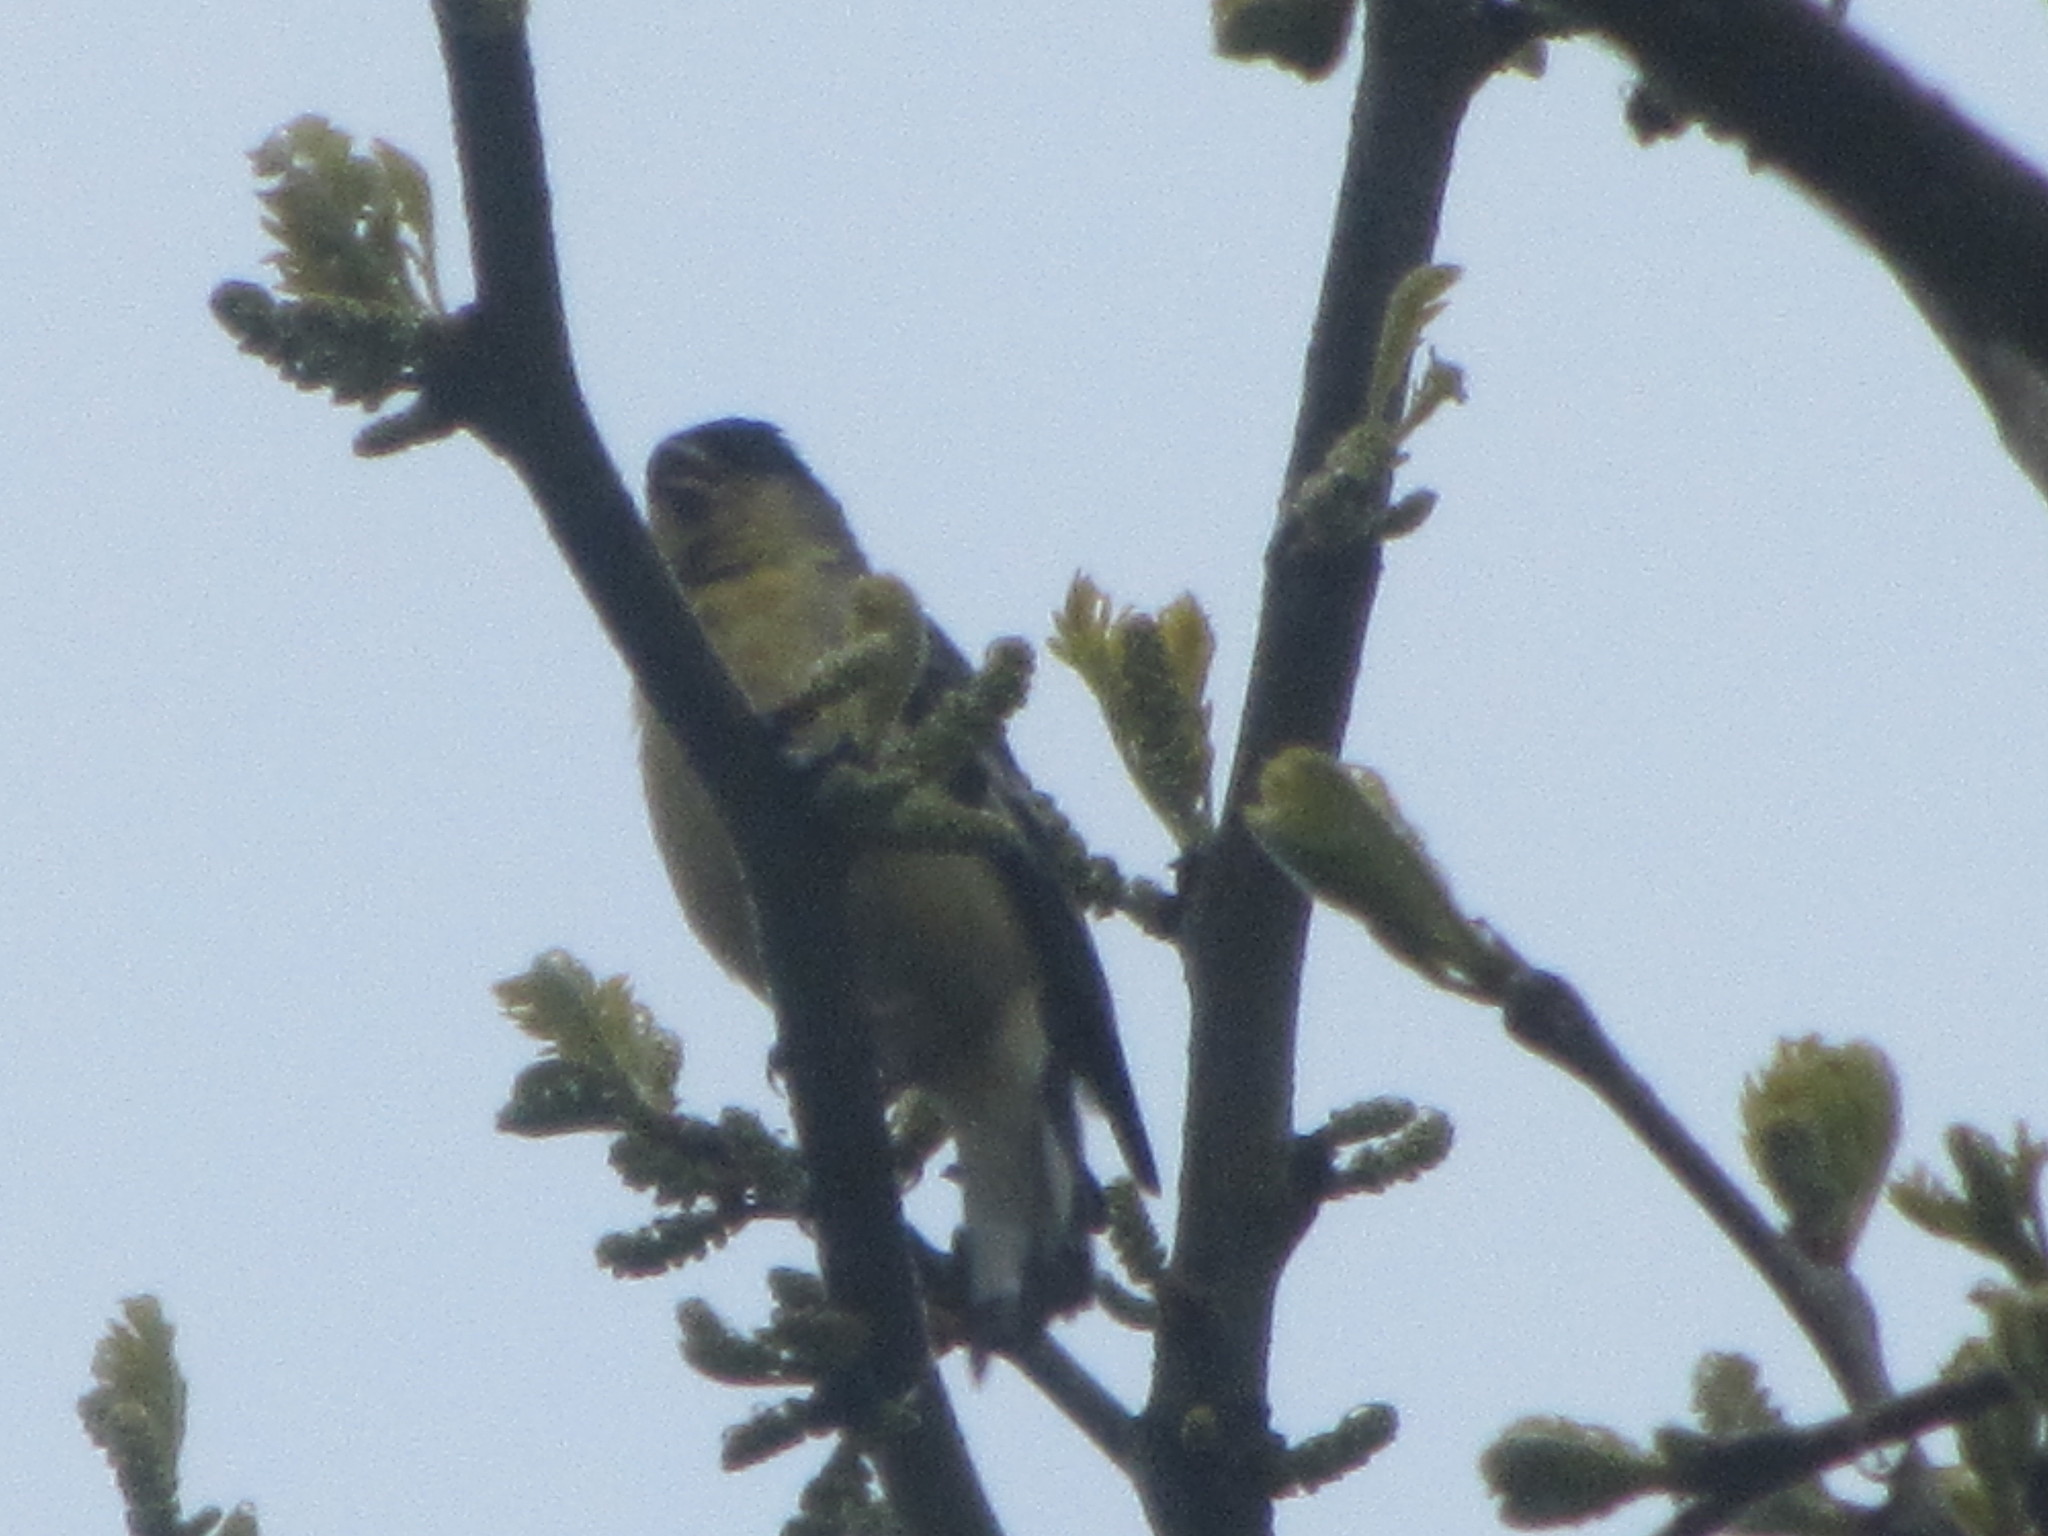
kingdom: Animalia
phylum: Chordata
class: Aves
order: Passeriformes
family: Fringillidae
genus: Spinus
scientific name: Spinus psaltria
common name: Lesser goldfinch
